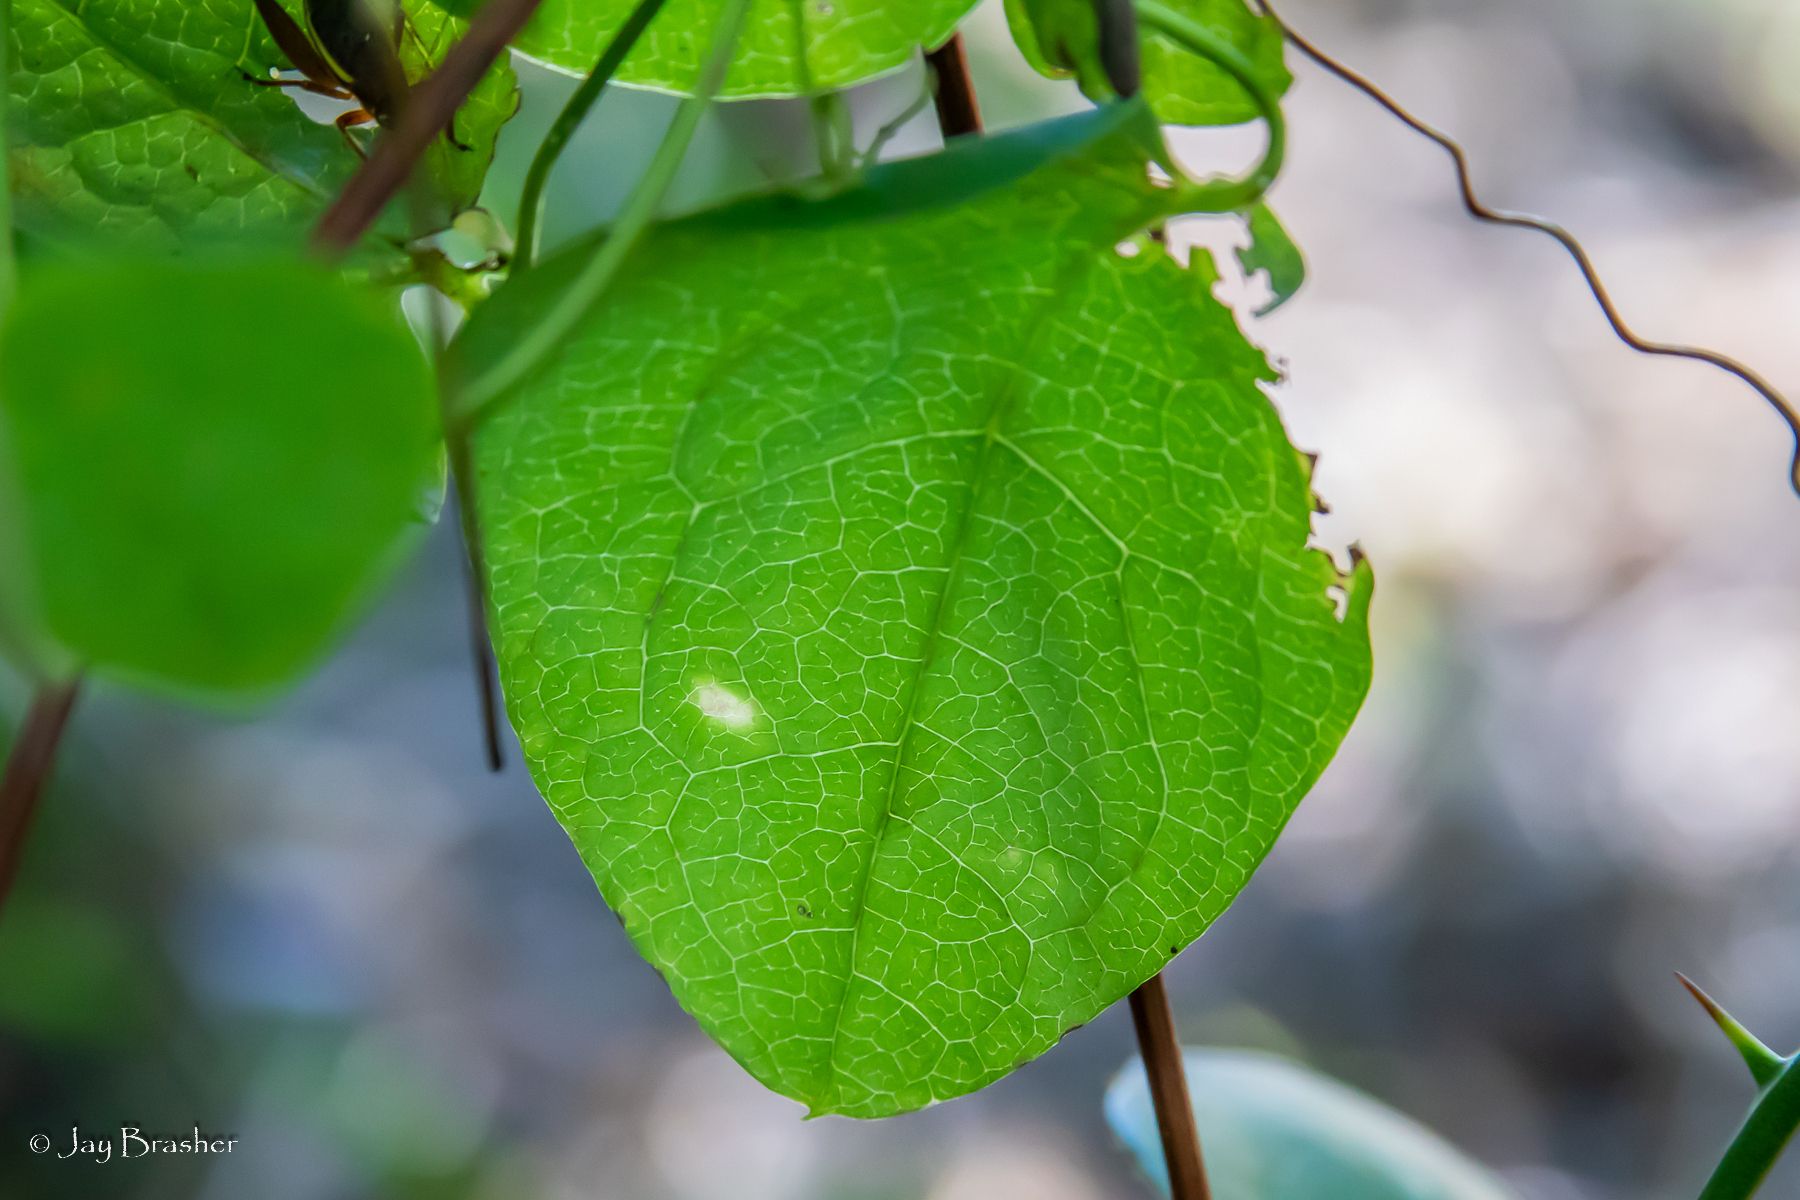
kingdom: Plantae
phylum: Tracheophyta
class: Magnoliopsida
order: Ranunculales
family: Ranunculaceae
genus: Clematis
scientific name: Clematis viorna
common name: Leather-flower
